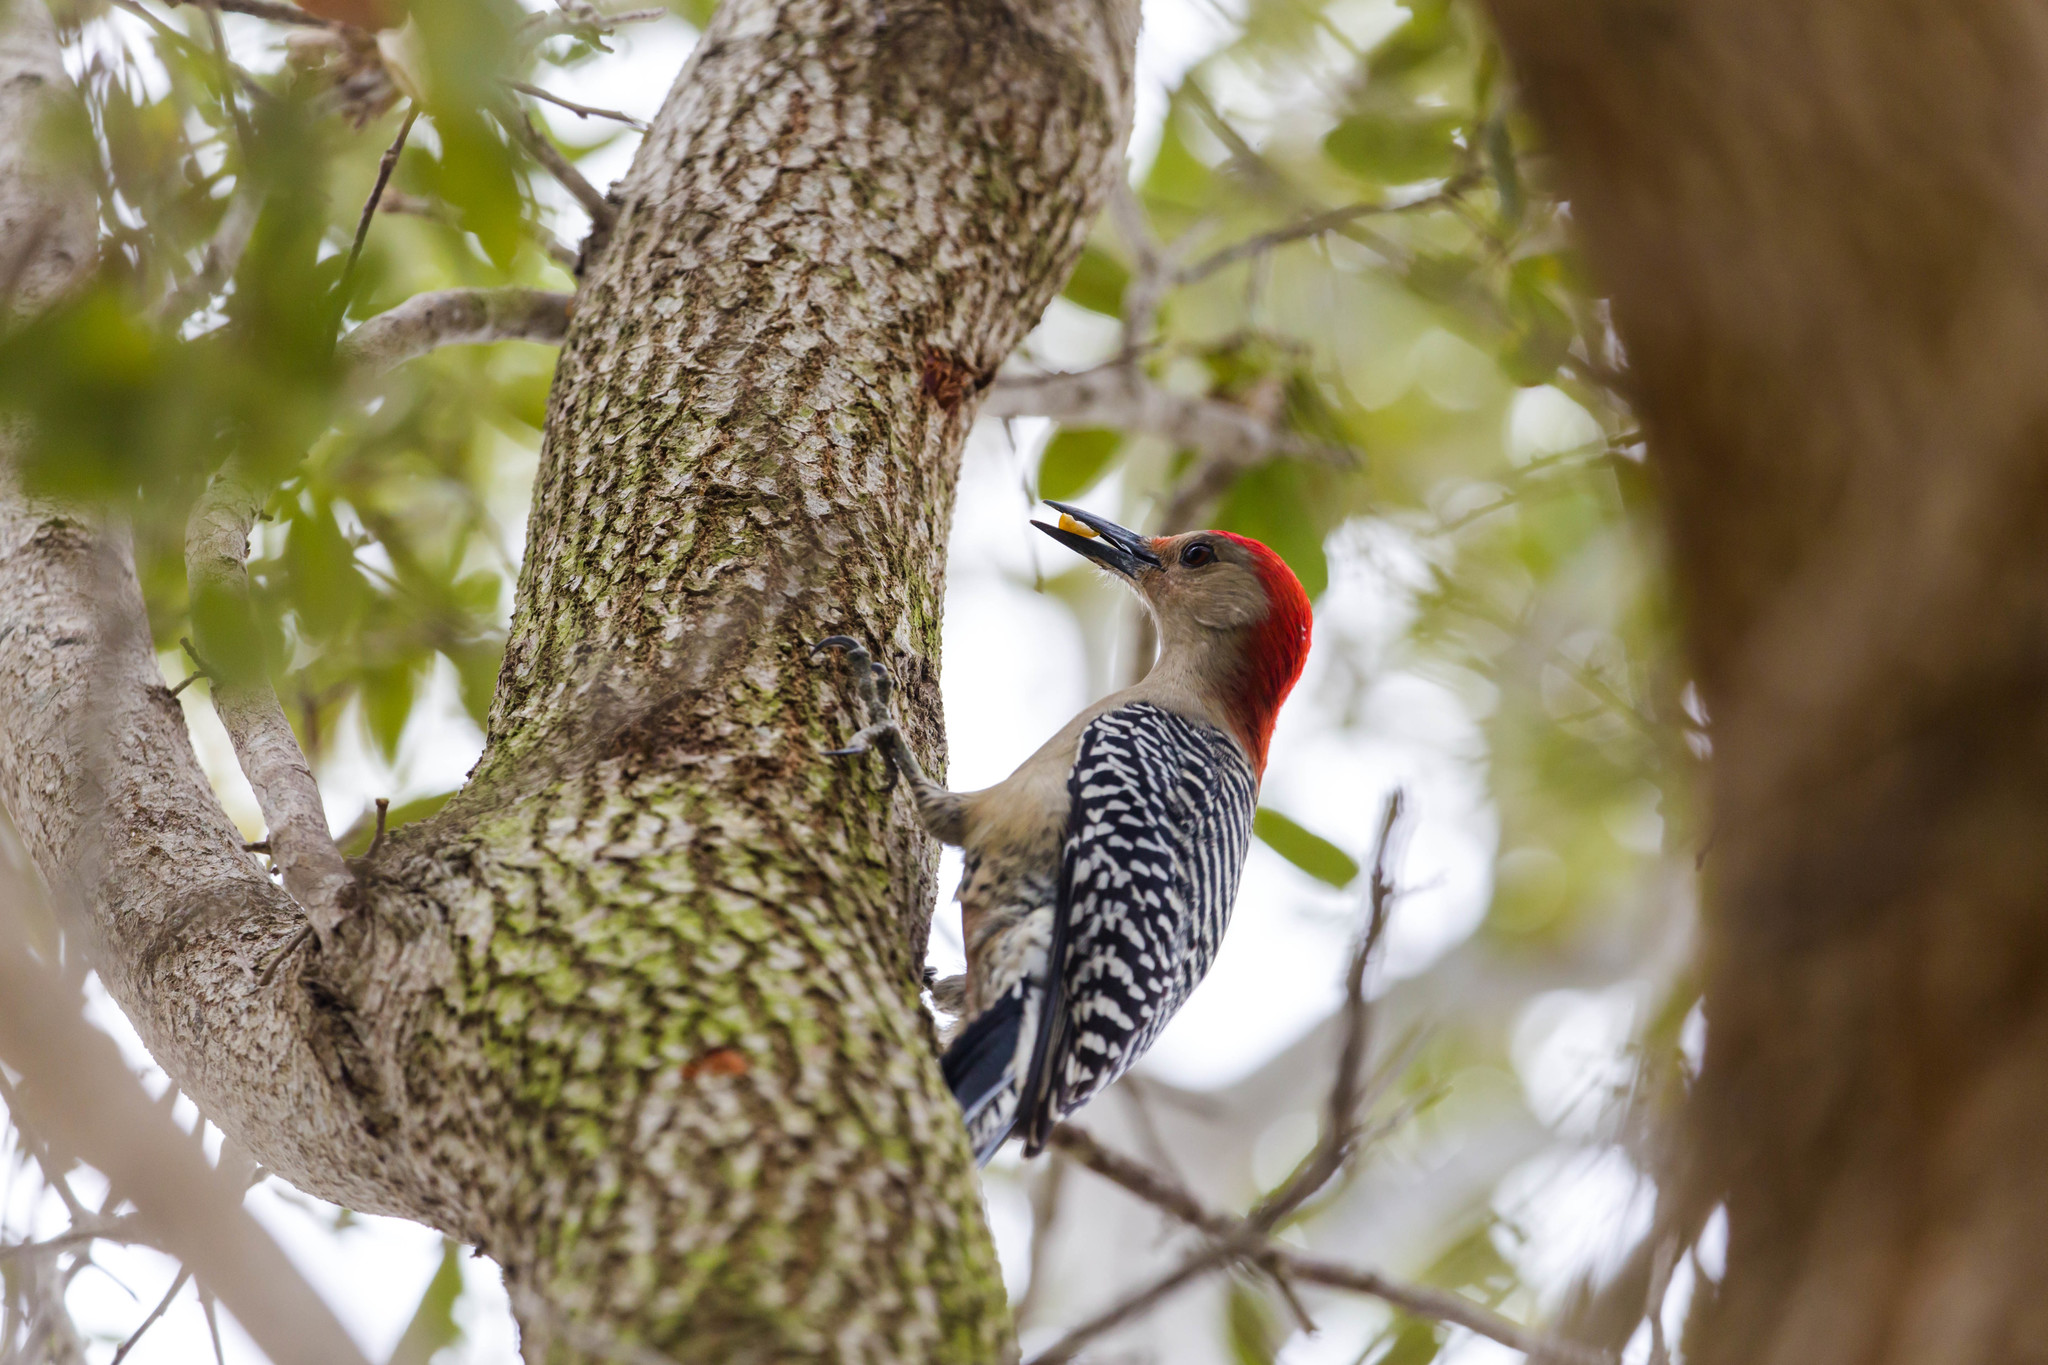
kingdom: Animalia
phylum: Chordata
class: Aves
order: Piciformes
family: Picidae
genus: Melanerpes
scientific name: Melanerpes carolinus
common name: Red-bellied woodpecker
